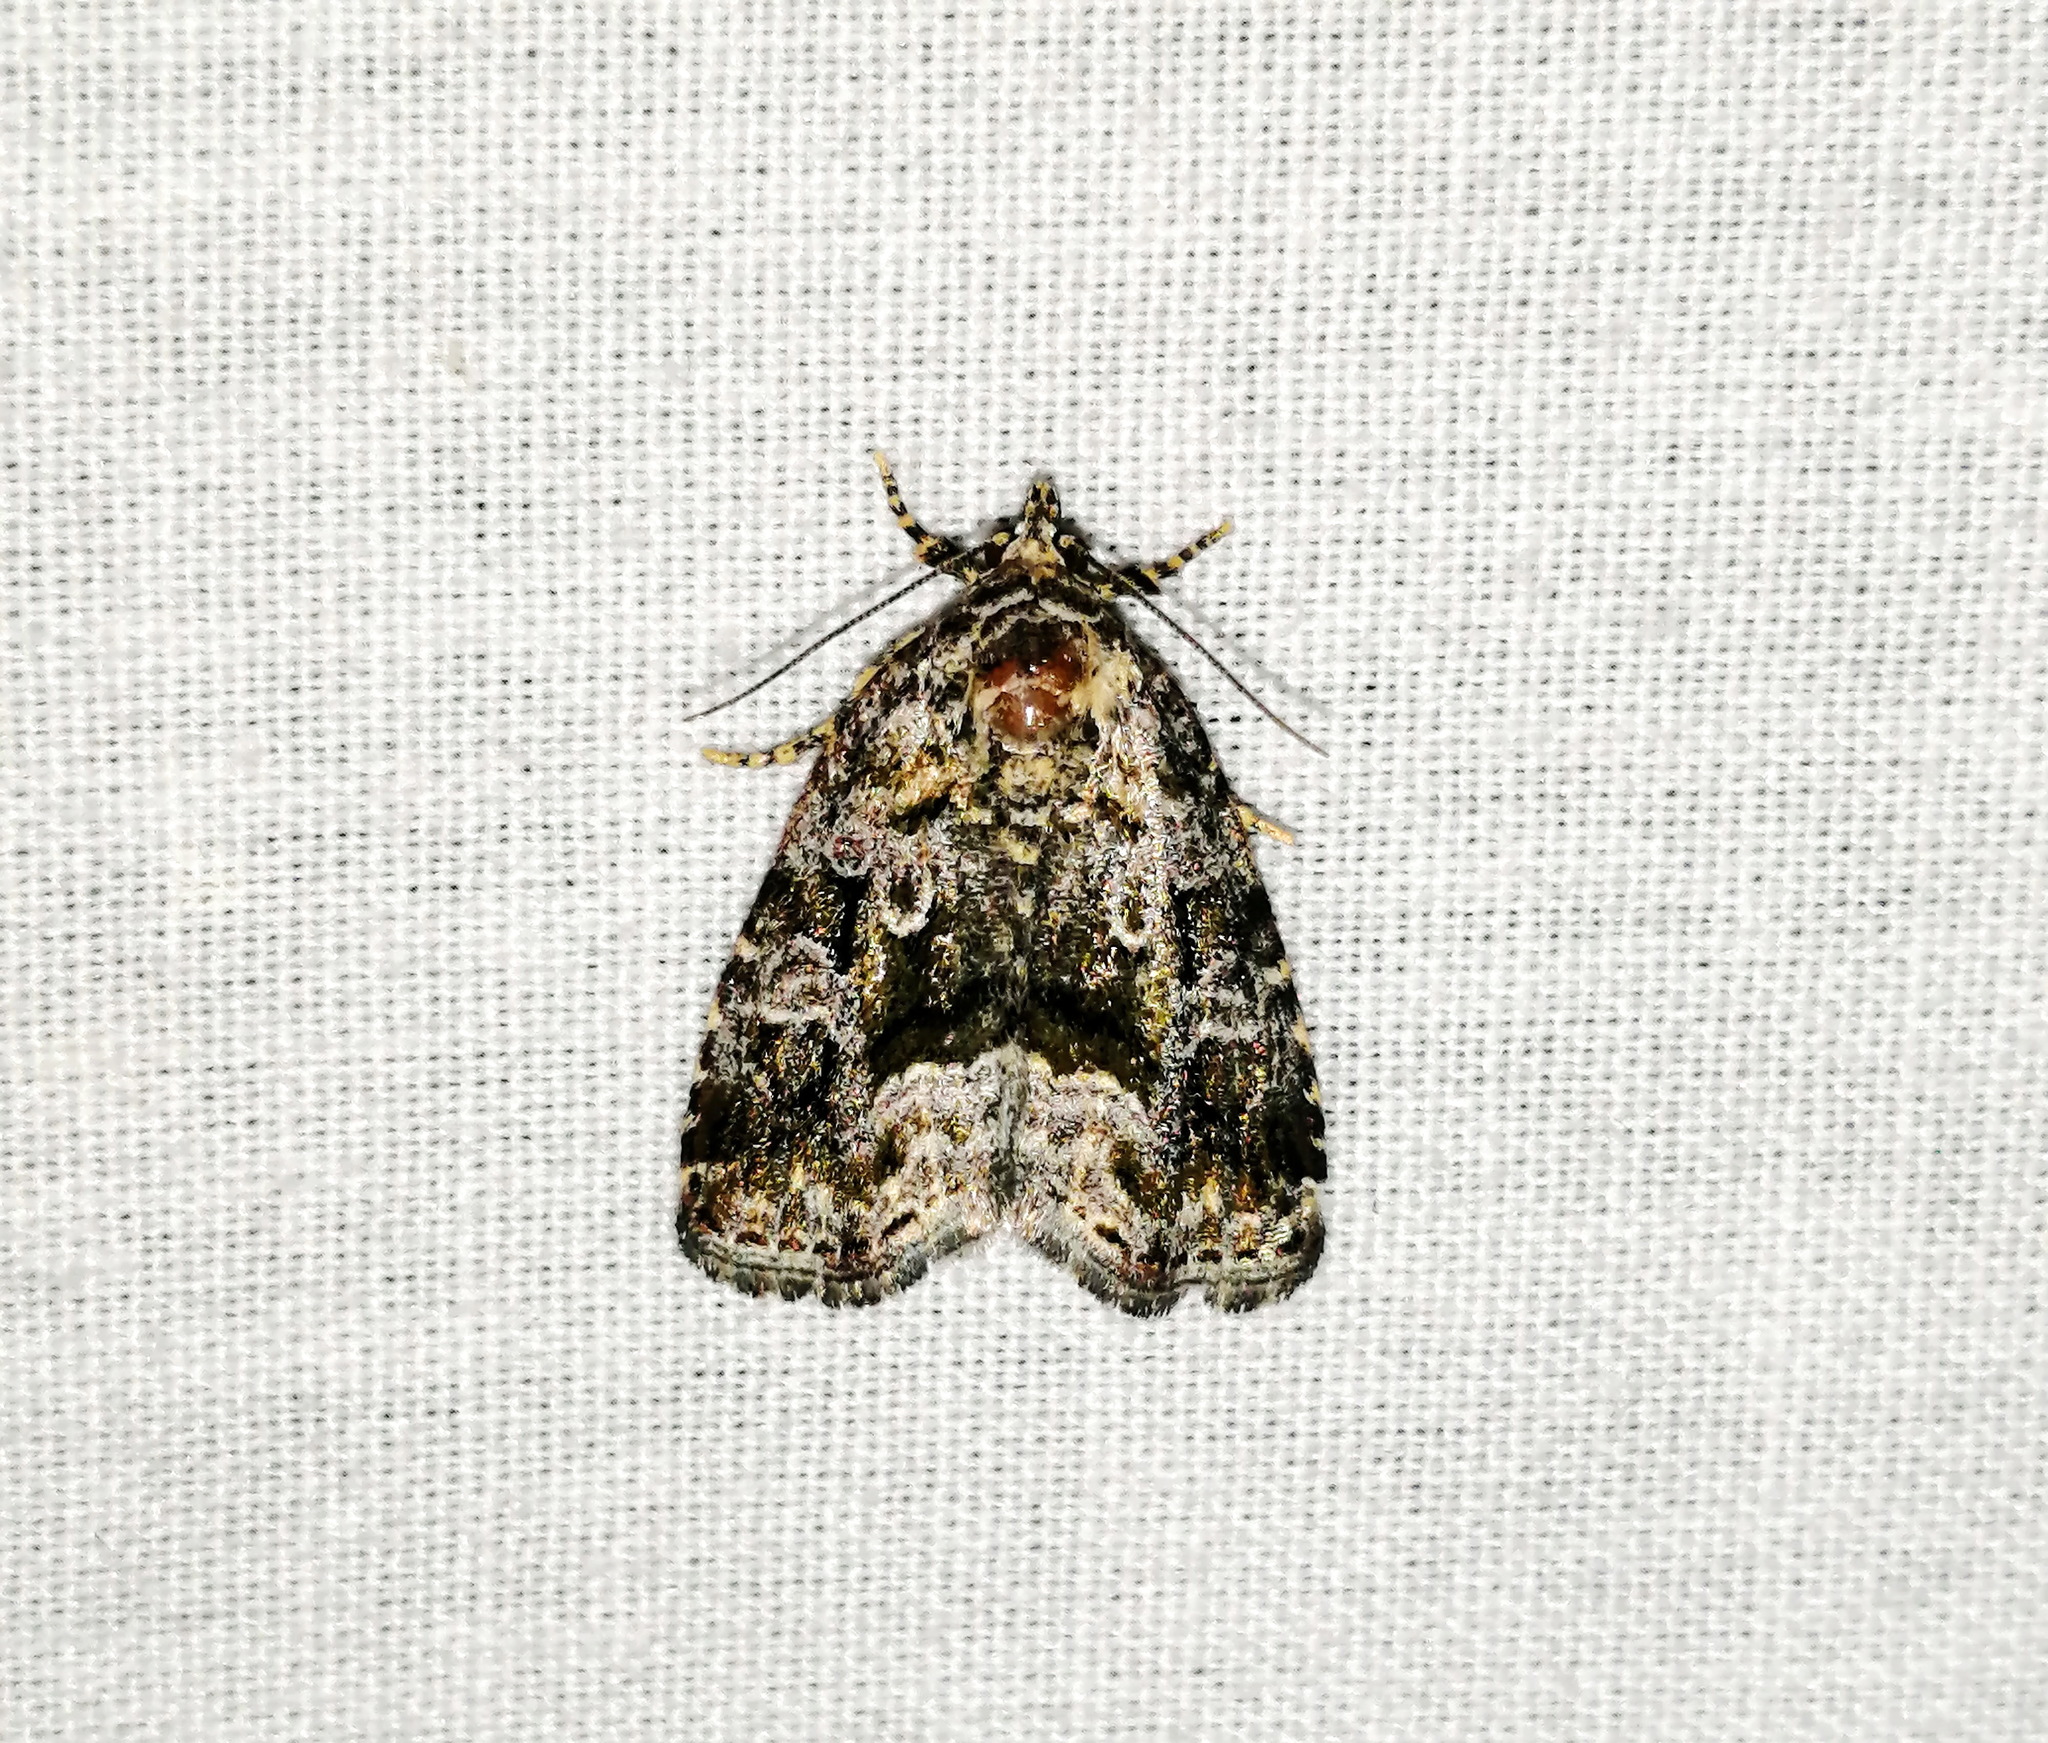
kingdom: Animalia
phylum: Arthropoda
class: Insecta
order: Lepidoptera
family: Noctuidae
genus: Protodeltote
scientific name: Protodeltote muscosula
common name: Large mossy glyph
